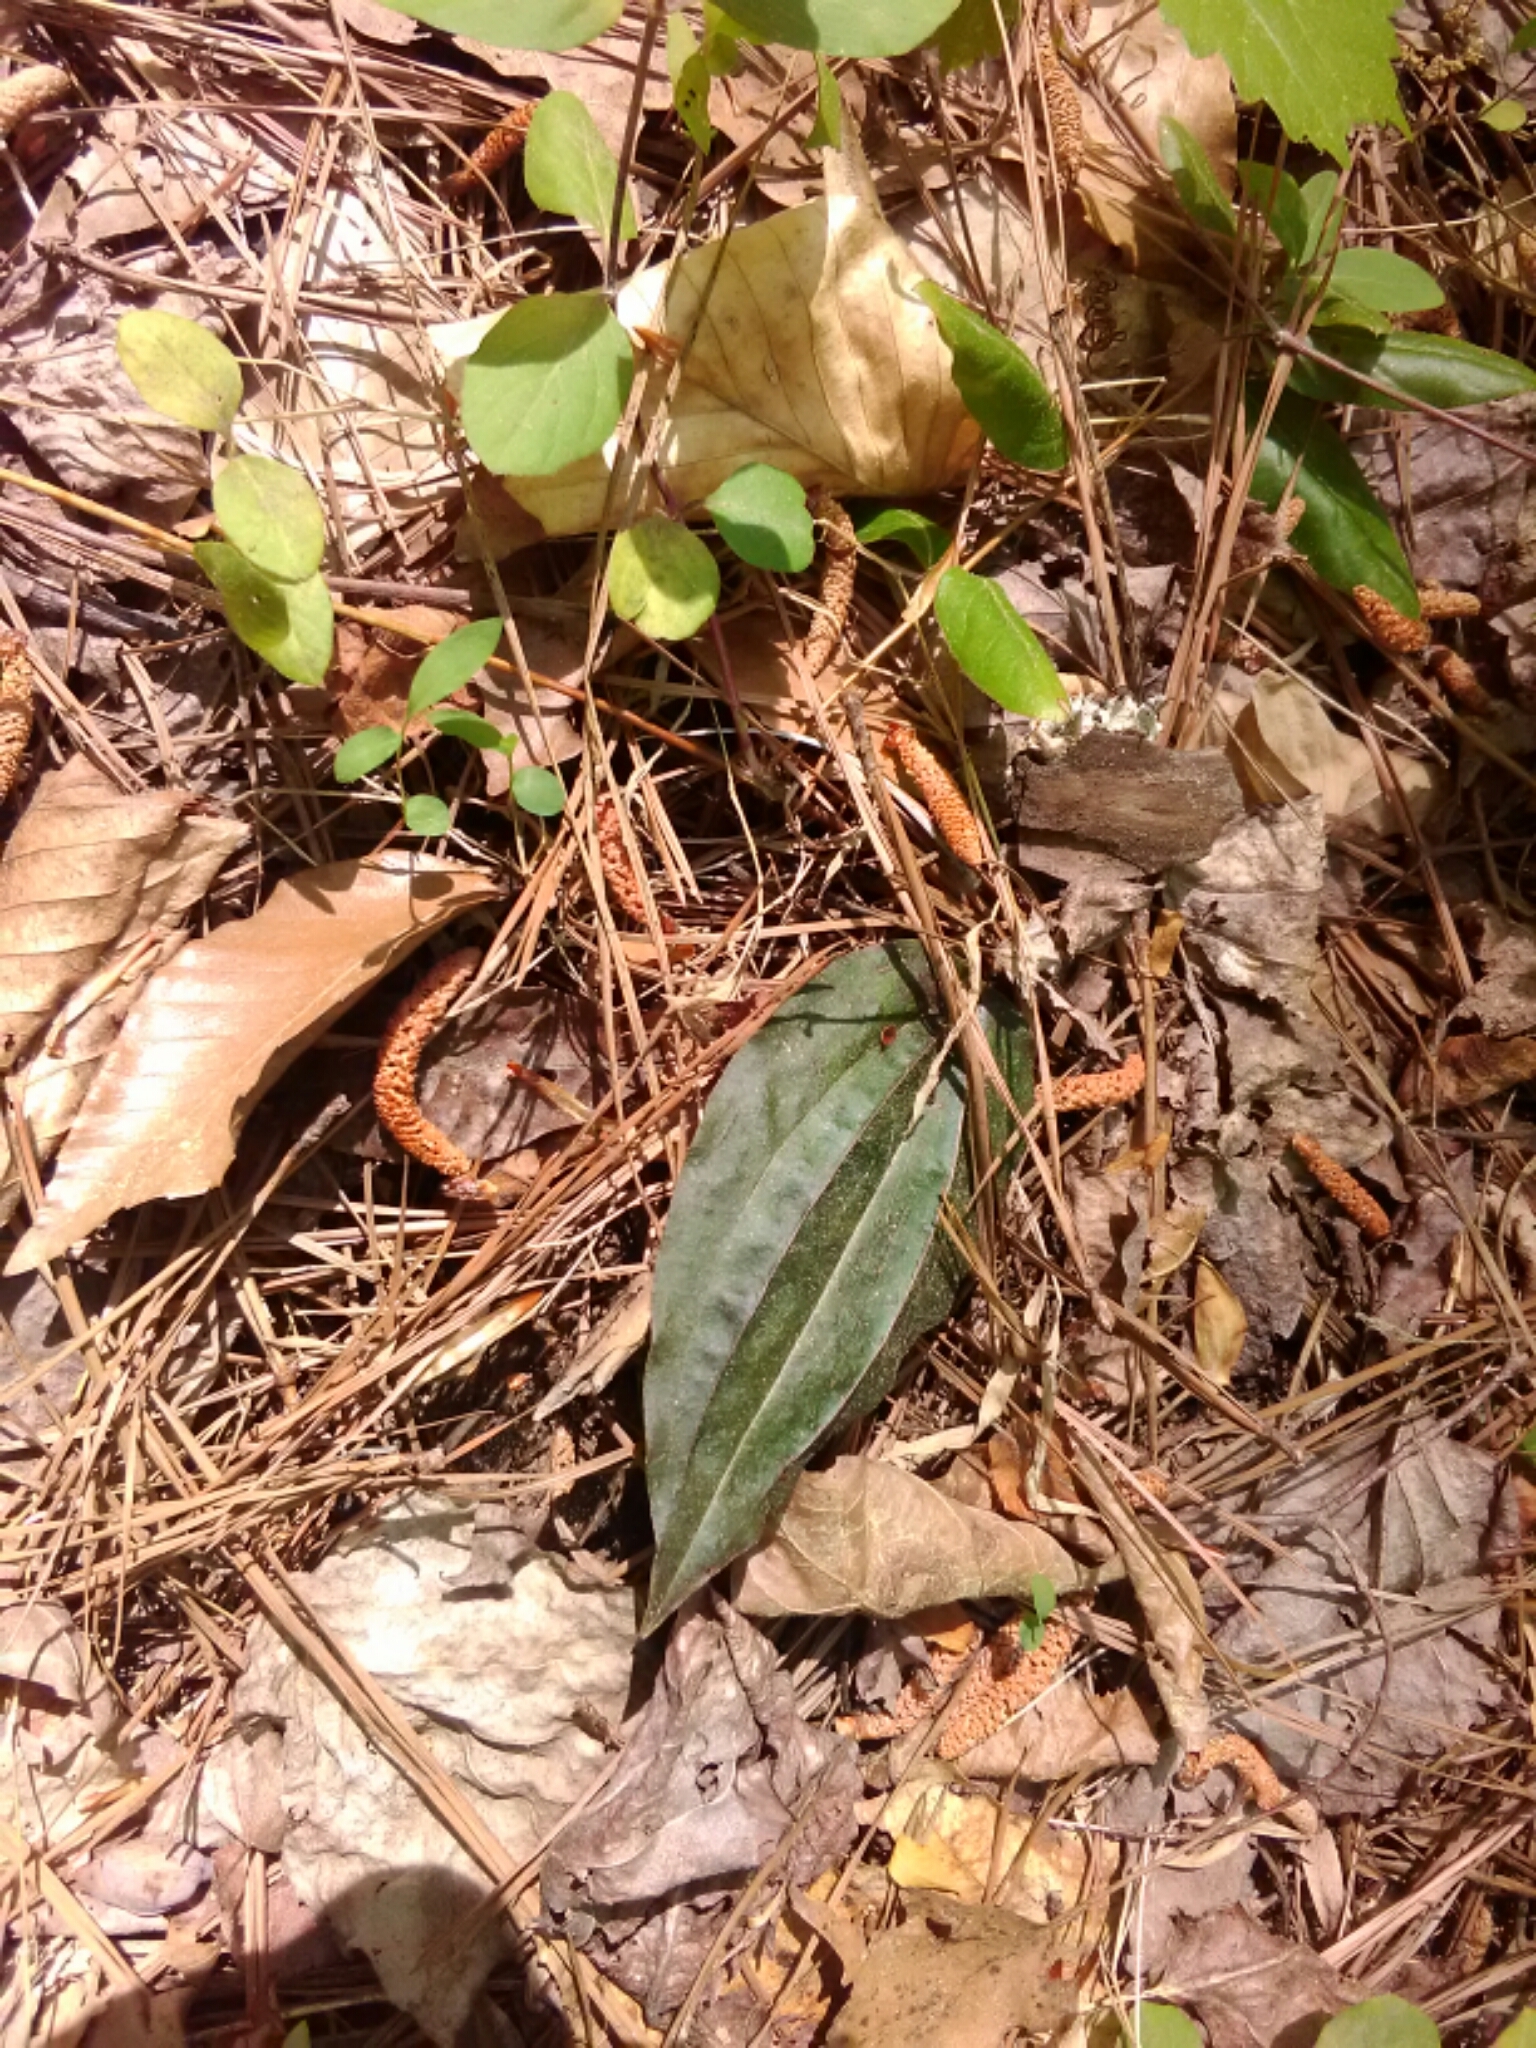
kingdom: Plantae
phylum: Tracheophyta
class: Liliopsida
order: Asparagales
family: Orchidaceae
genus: Tipularia
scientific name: Tipularia discolor
